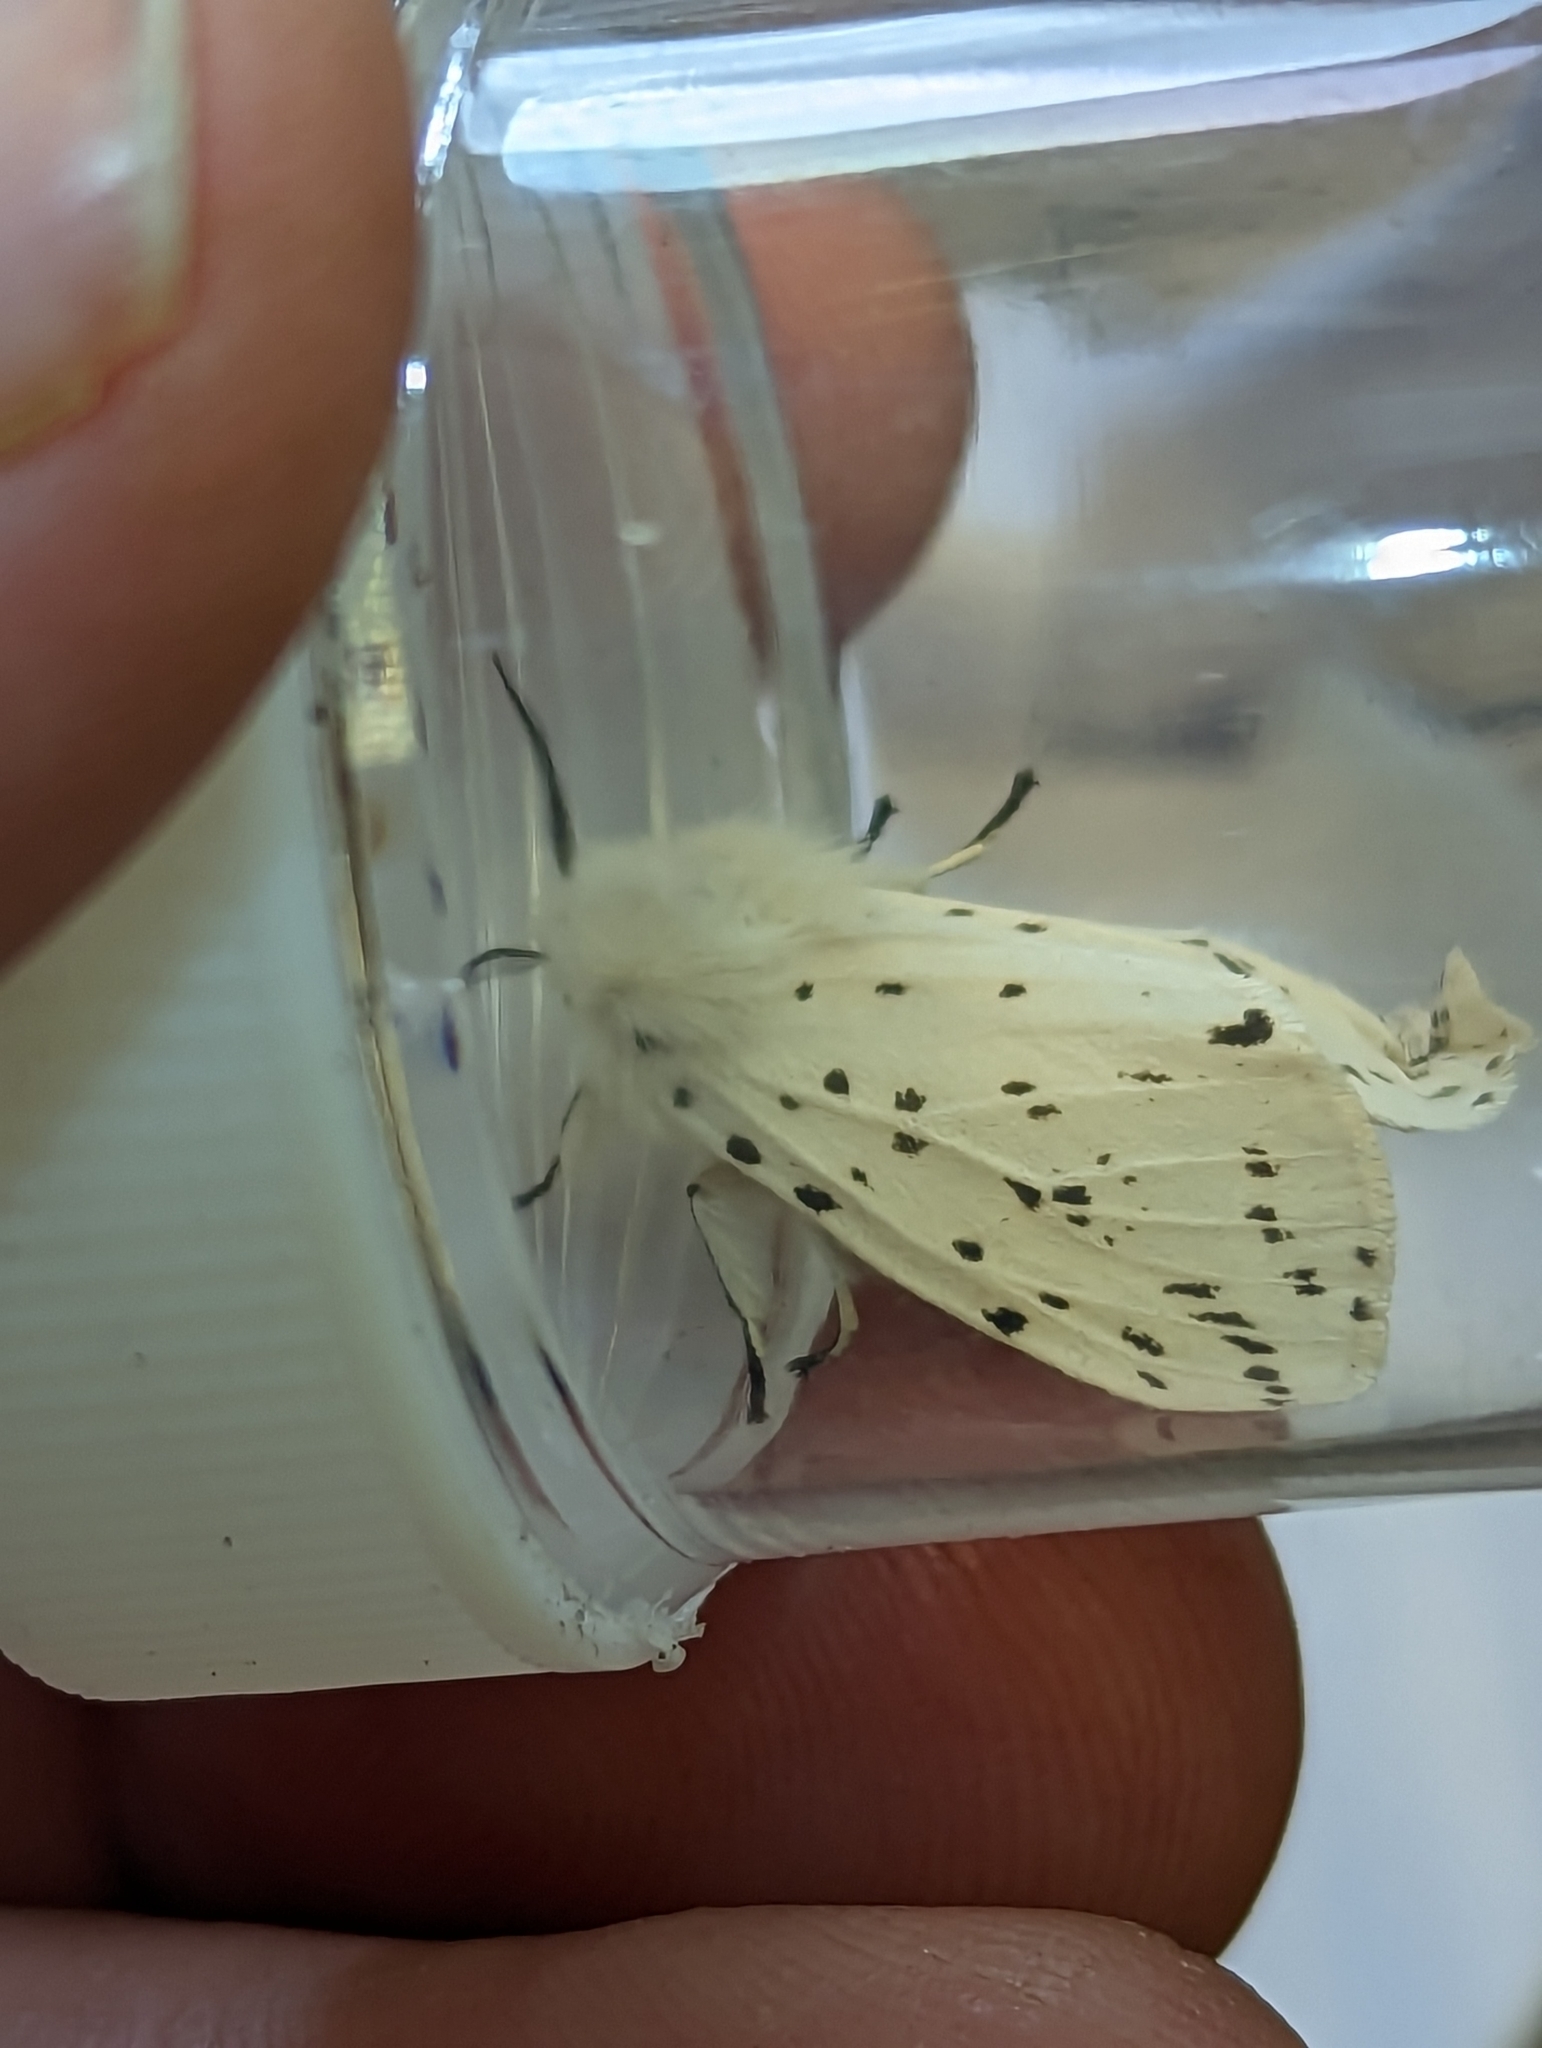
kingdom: Animalia
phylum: Arthropoda
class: Insecta
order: Lepidoptera
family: Erebidae
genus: Spilosoma
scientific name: Spilosoma lubricipeda
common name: White ermine
